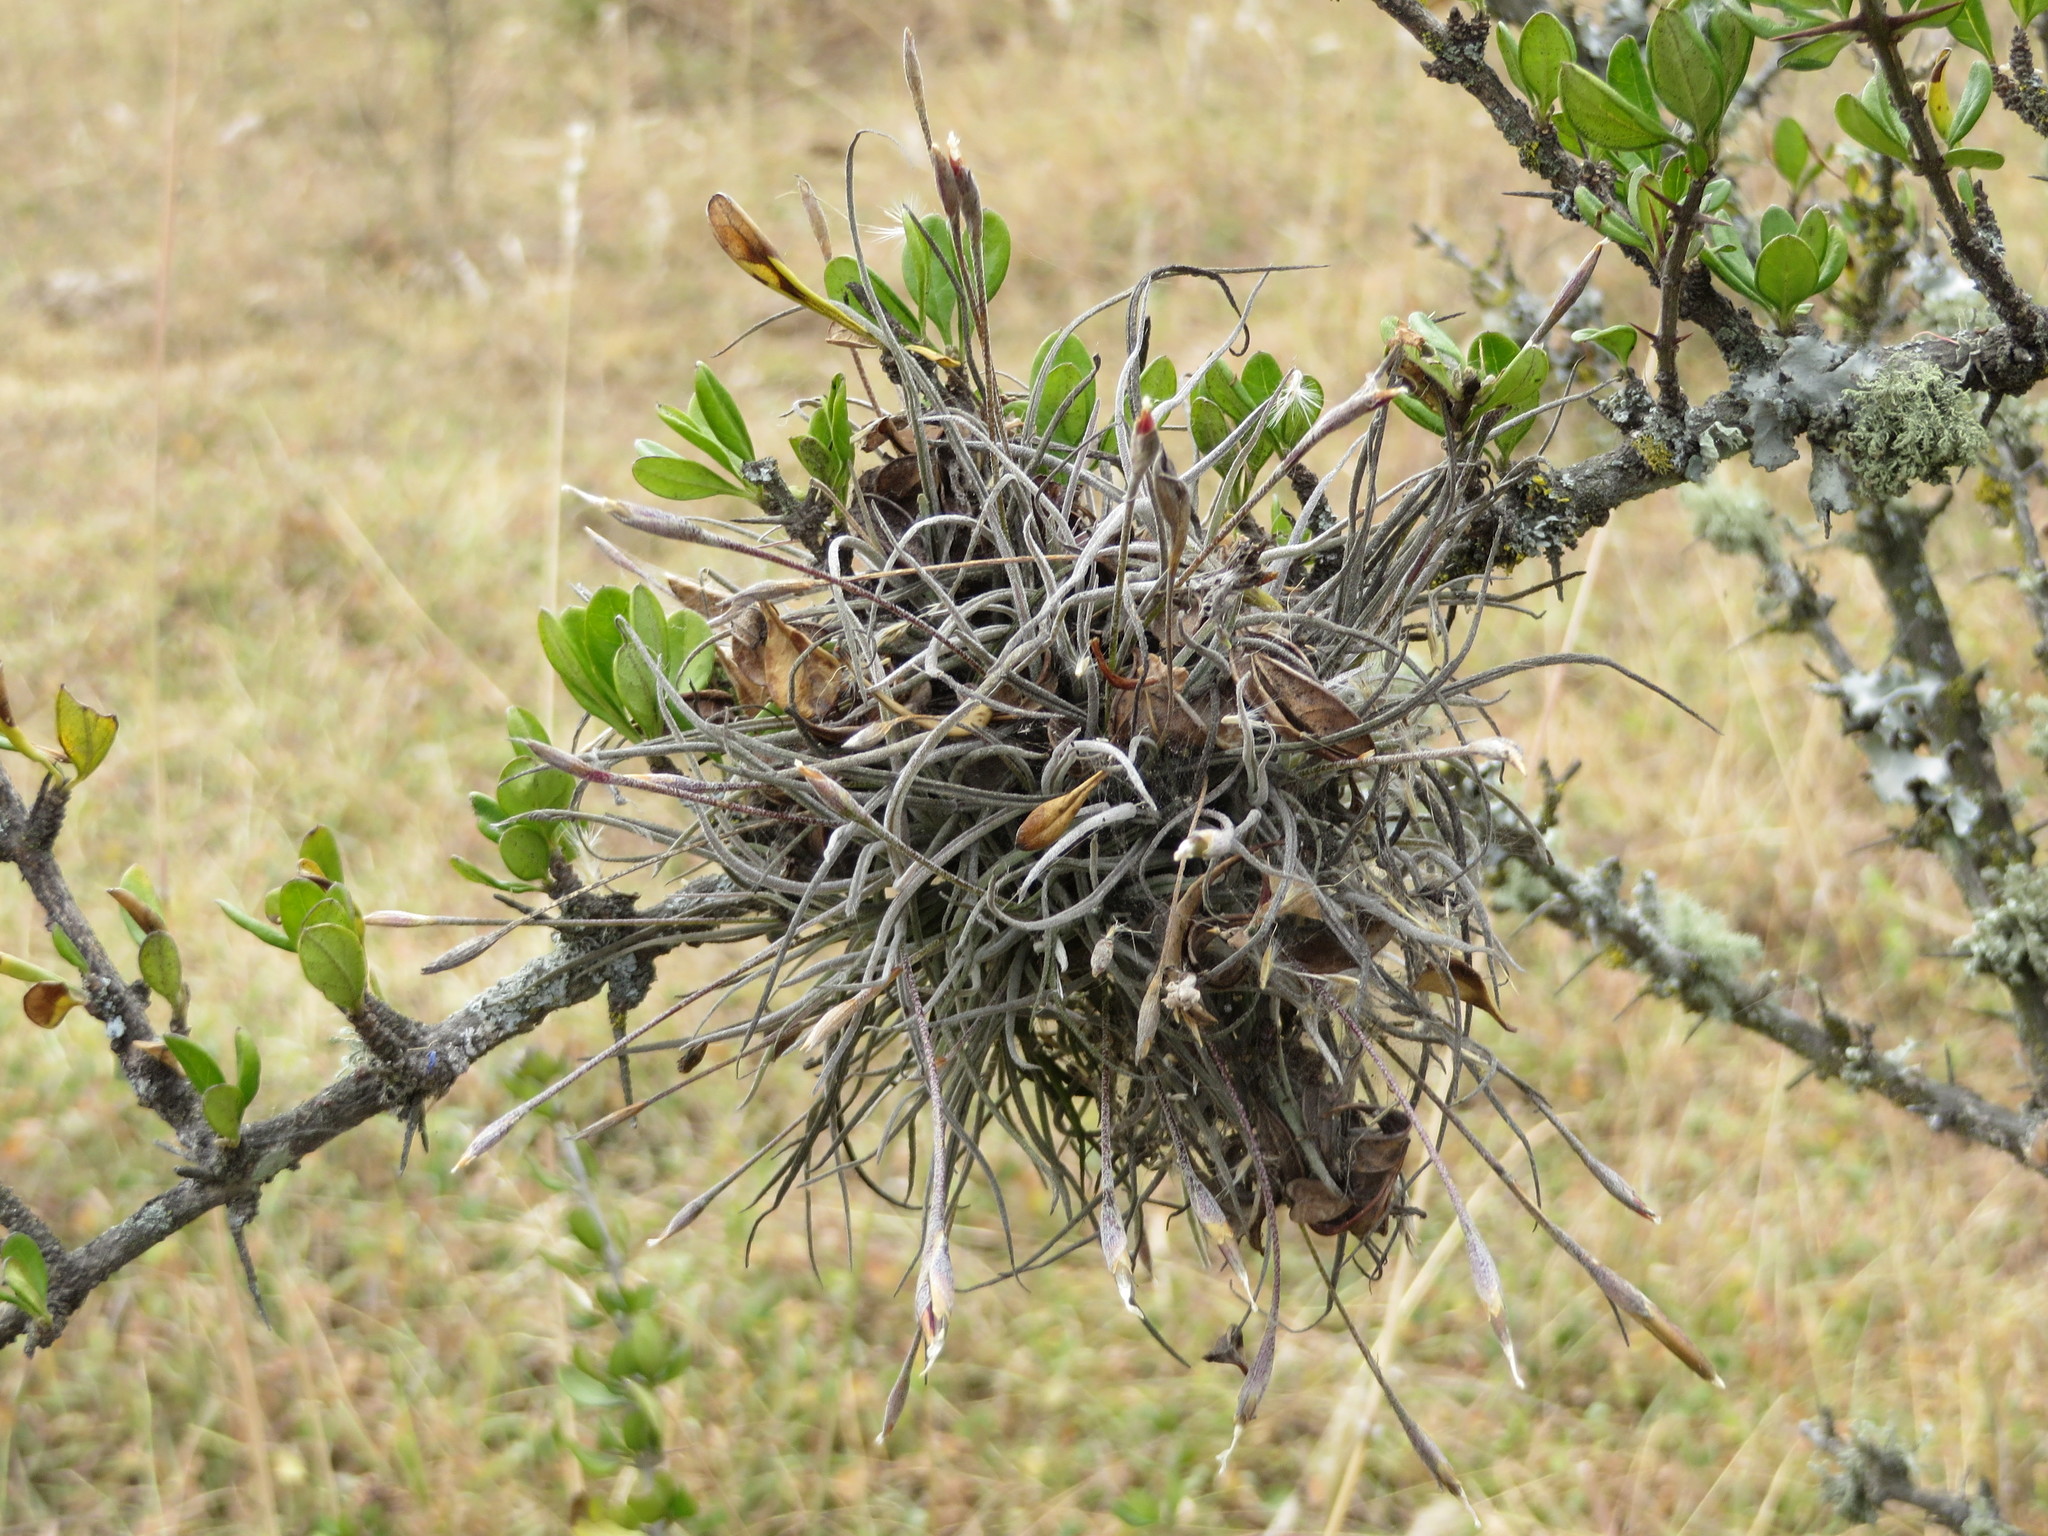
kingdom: Plantae
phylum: Tracheophyta
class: Liliopsida
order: Poales
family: Bromeliaceae
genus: Tillandsia
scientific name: Tillandsia recurvata
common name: Small ballmoss
